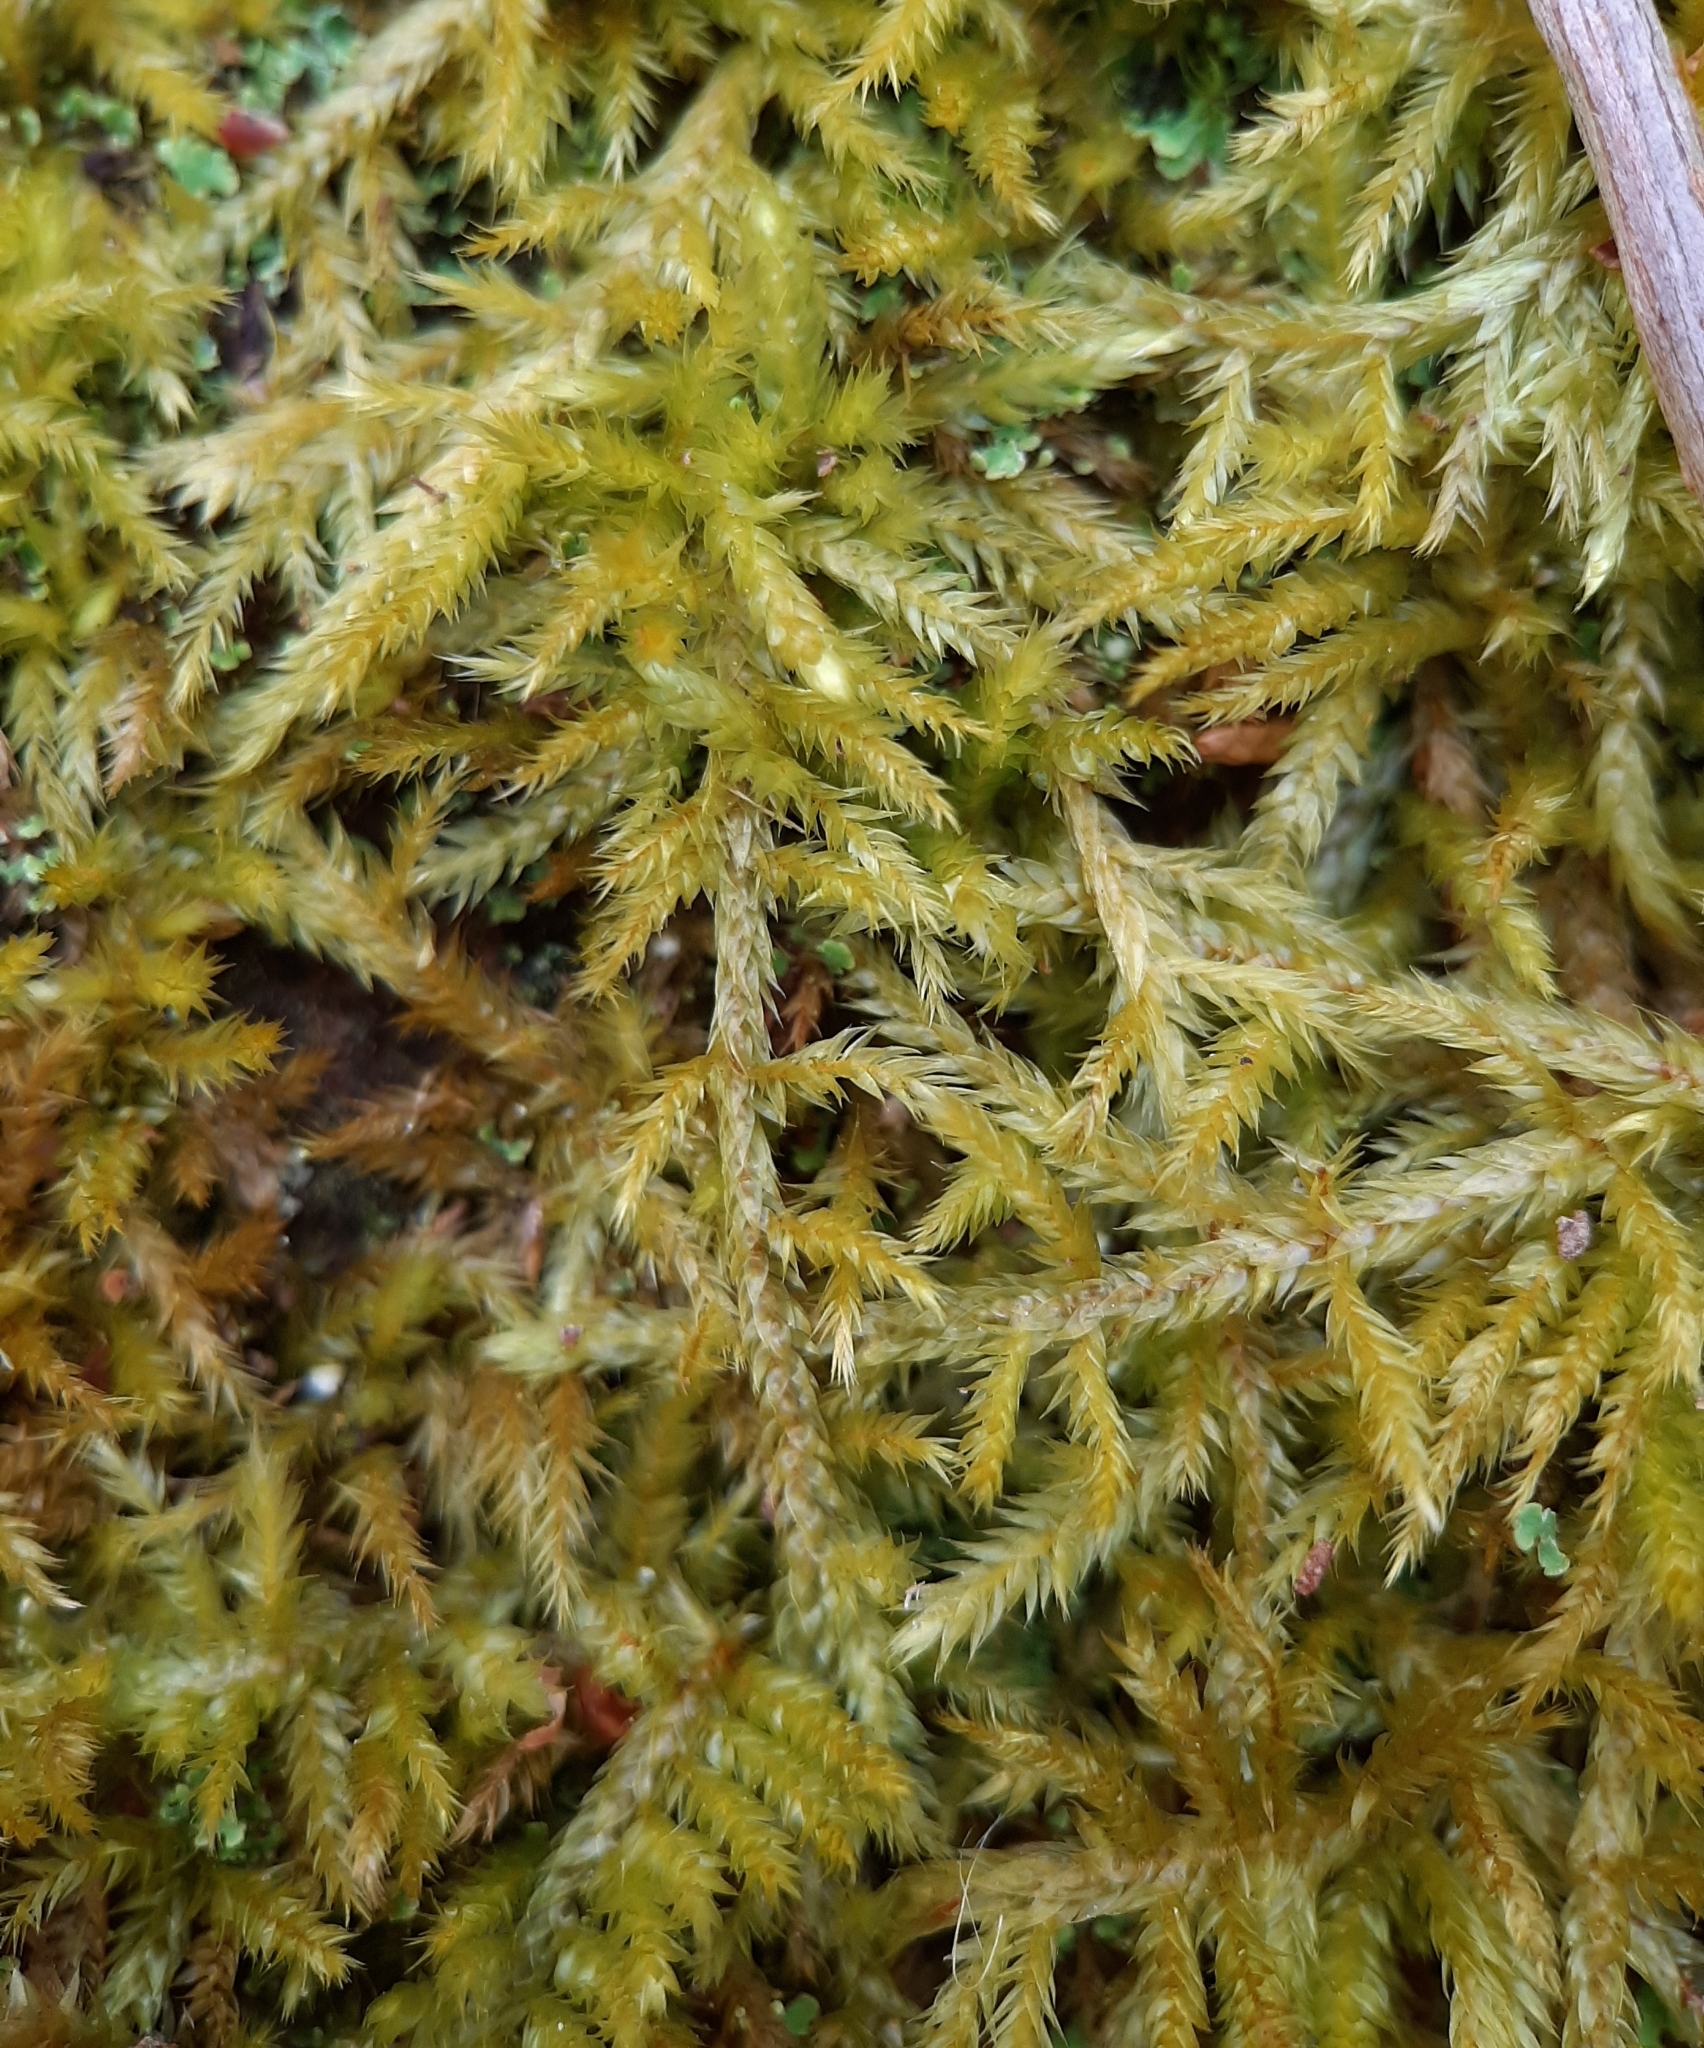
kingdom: Plantae
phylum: Bryophyta
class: Bryopsida
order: Hypnales
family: Callicladiaceae
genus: Callicladium
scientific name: Callicladium haldanianum
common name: Beautiful branch moss
